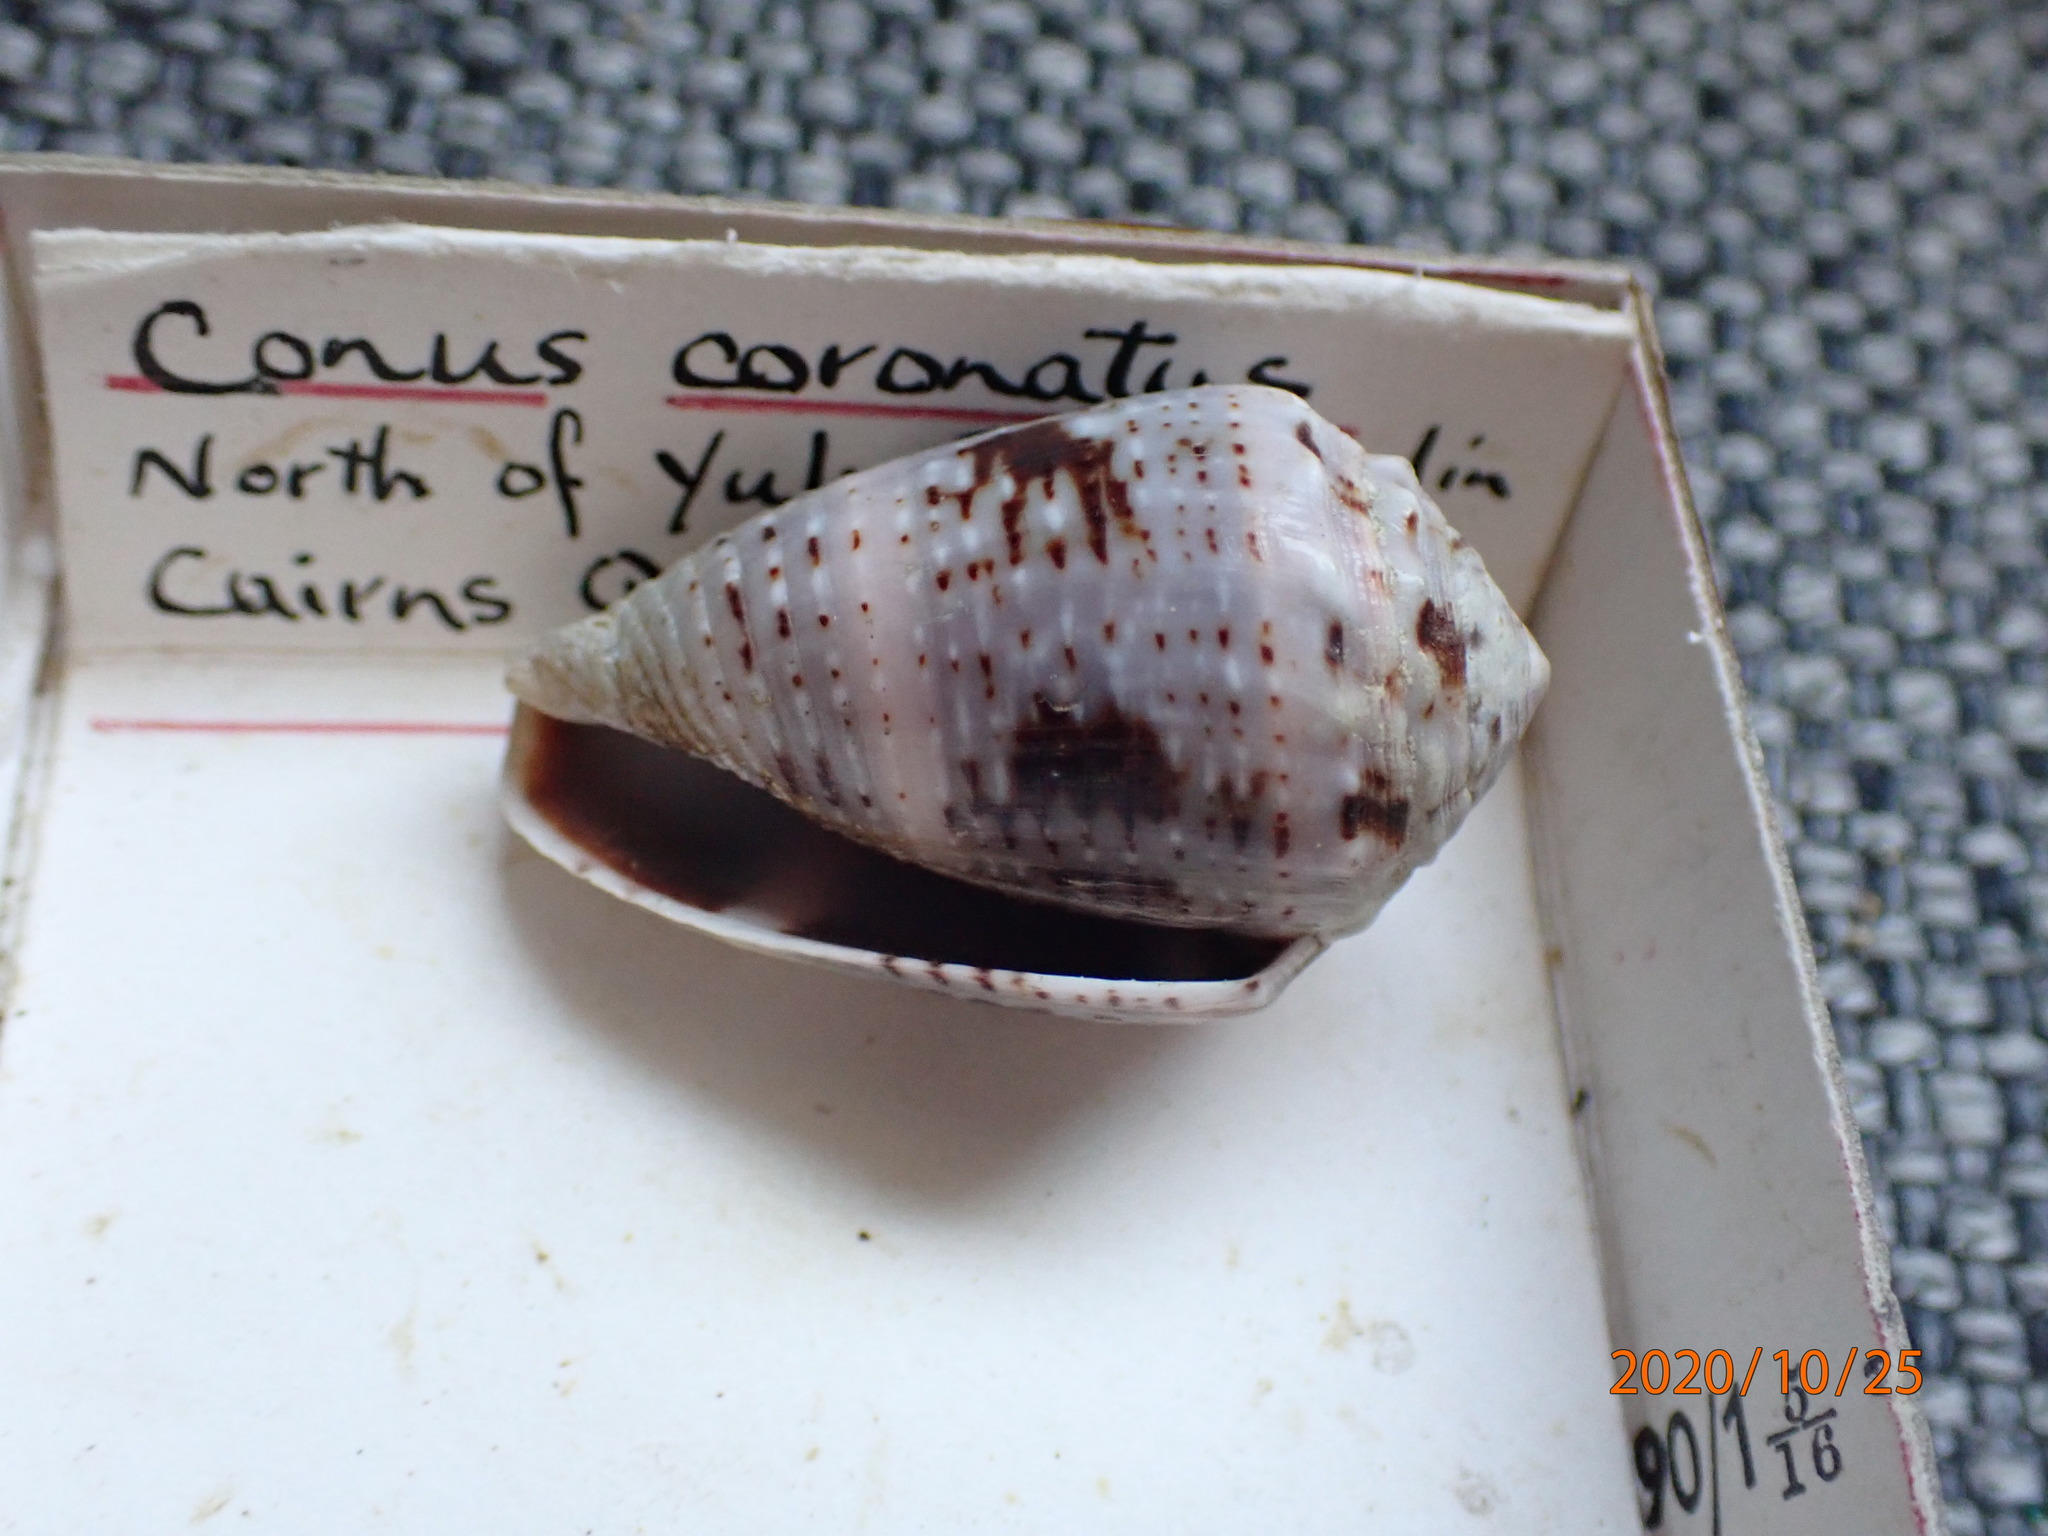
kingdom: Animalia
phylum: Mollusca
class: Gastropoda
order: Neogastropoda
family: Conidae
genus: Conus
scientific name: Conus coronatus
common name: Coronated cone
